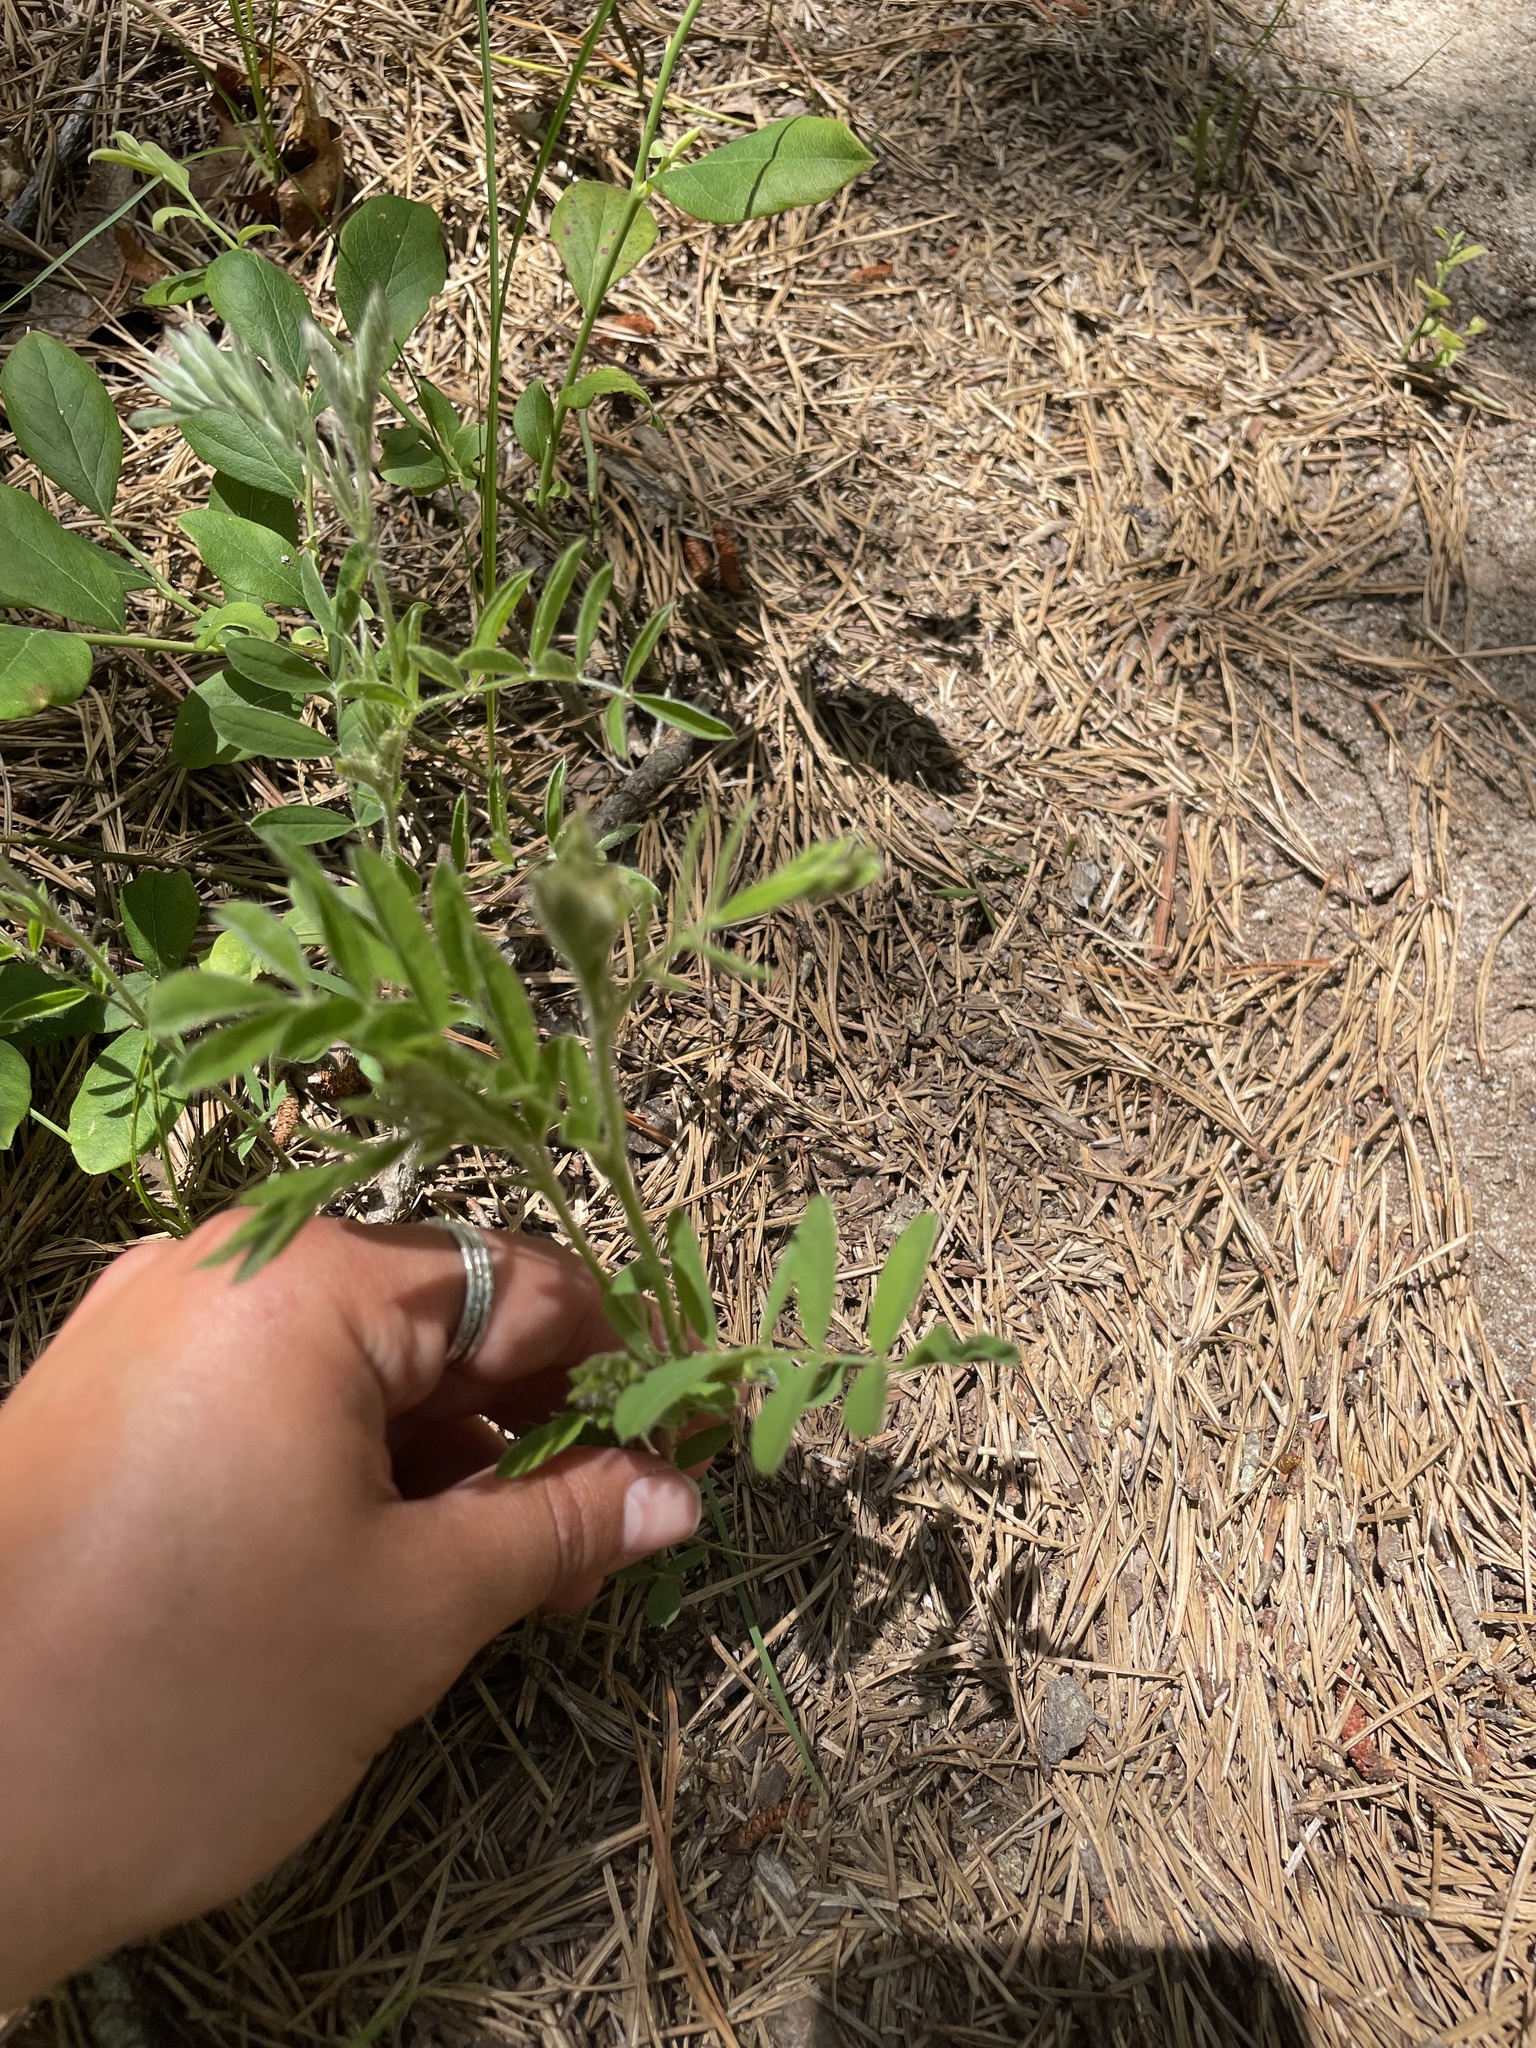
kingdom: Plantae
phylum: Tracheophyta
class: Magnoliopsida
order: Fabales
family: Fabaceae
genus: Tephrosia
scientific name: Tephrosia virginiana
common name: Rabbit-pea
